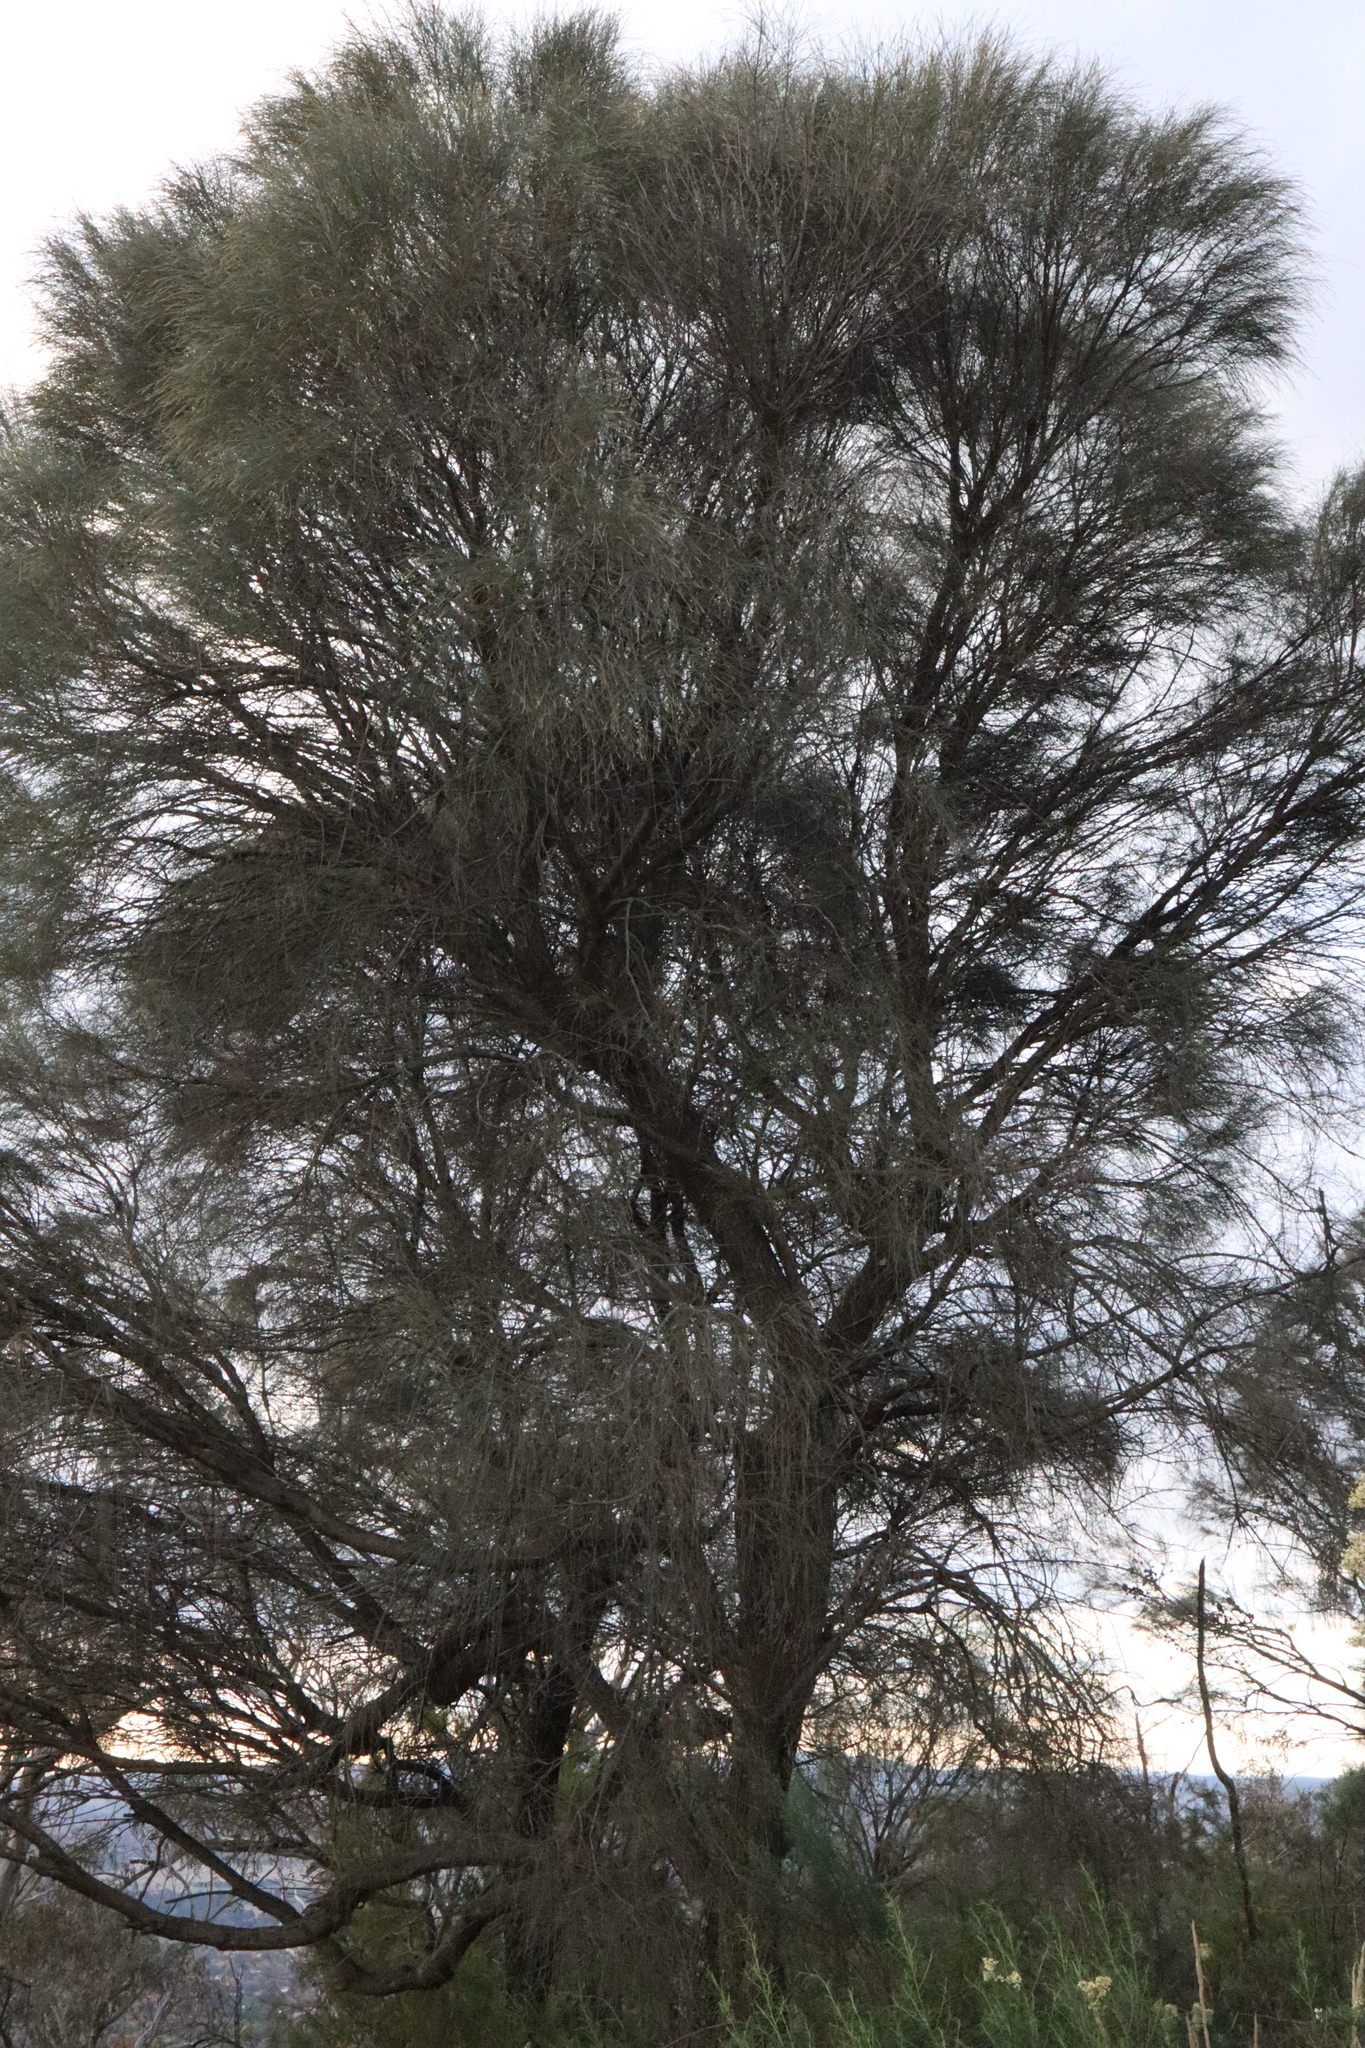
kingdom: Plantae
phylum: Tracheophyta
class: Magnoliopsida
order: Fagales
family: Casuarinaceae
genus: Allocasuarina
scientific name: Allocasuarina verticillata
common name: Drooping she-oak
